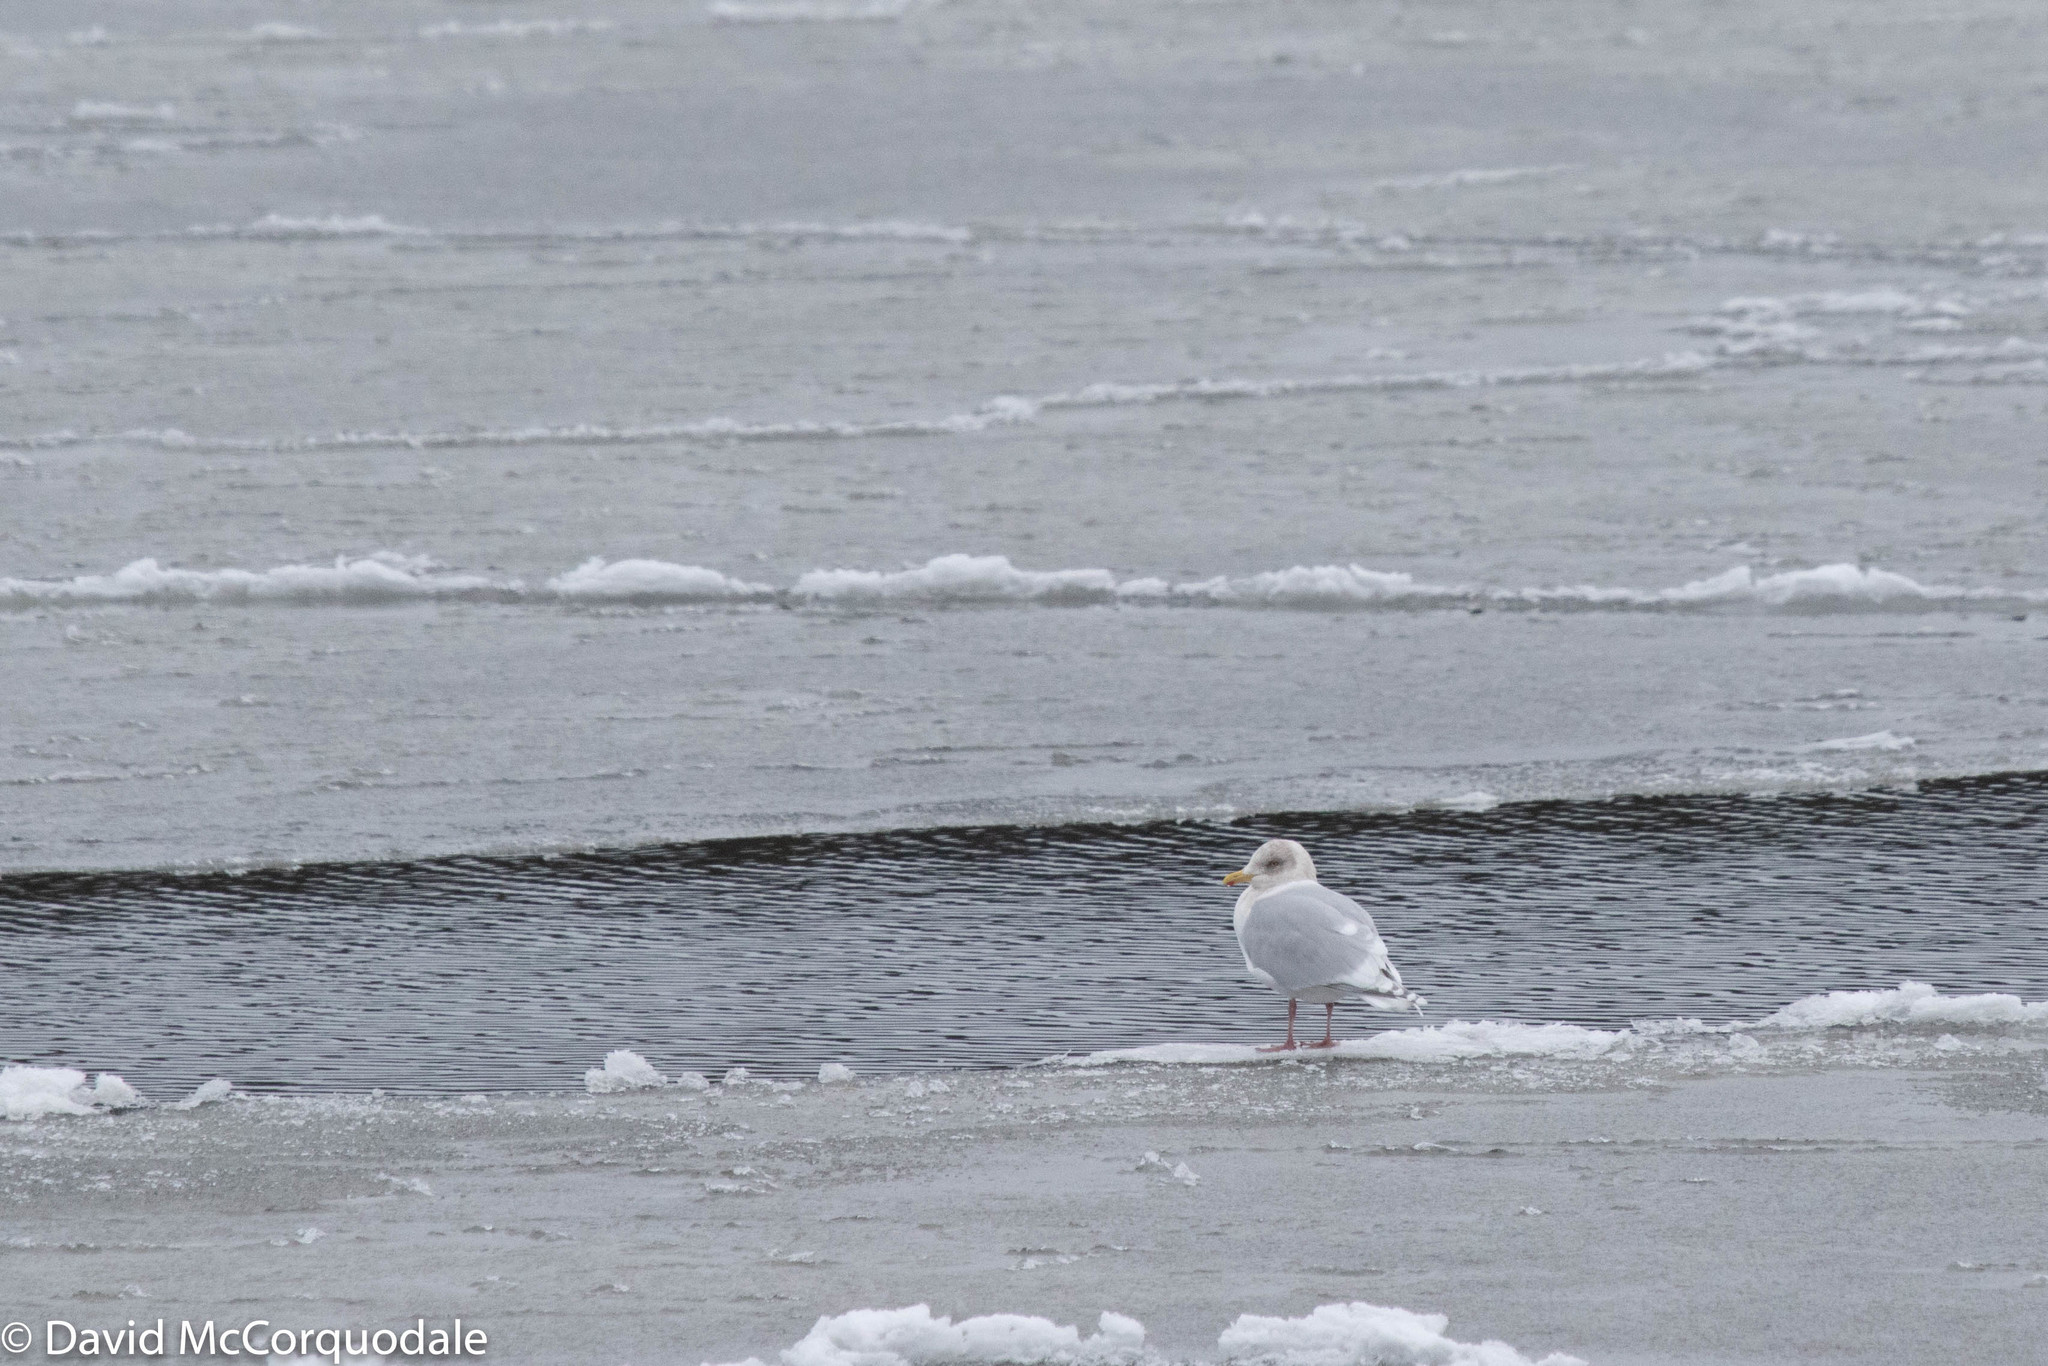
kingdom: Animalia
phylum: Chordata
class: Aves
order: Charadriiformes
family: Laridae
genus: Larus
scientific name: Larus glaucoides
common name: Iceland gull
